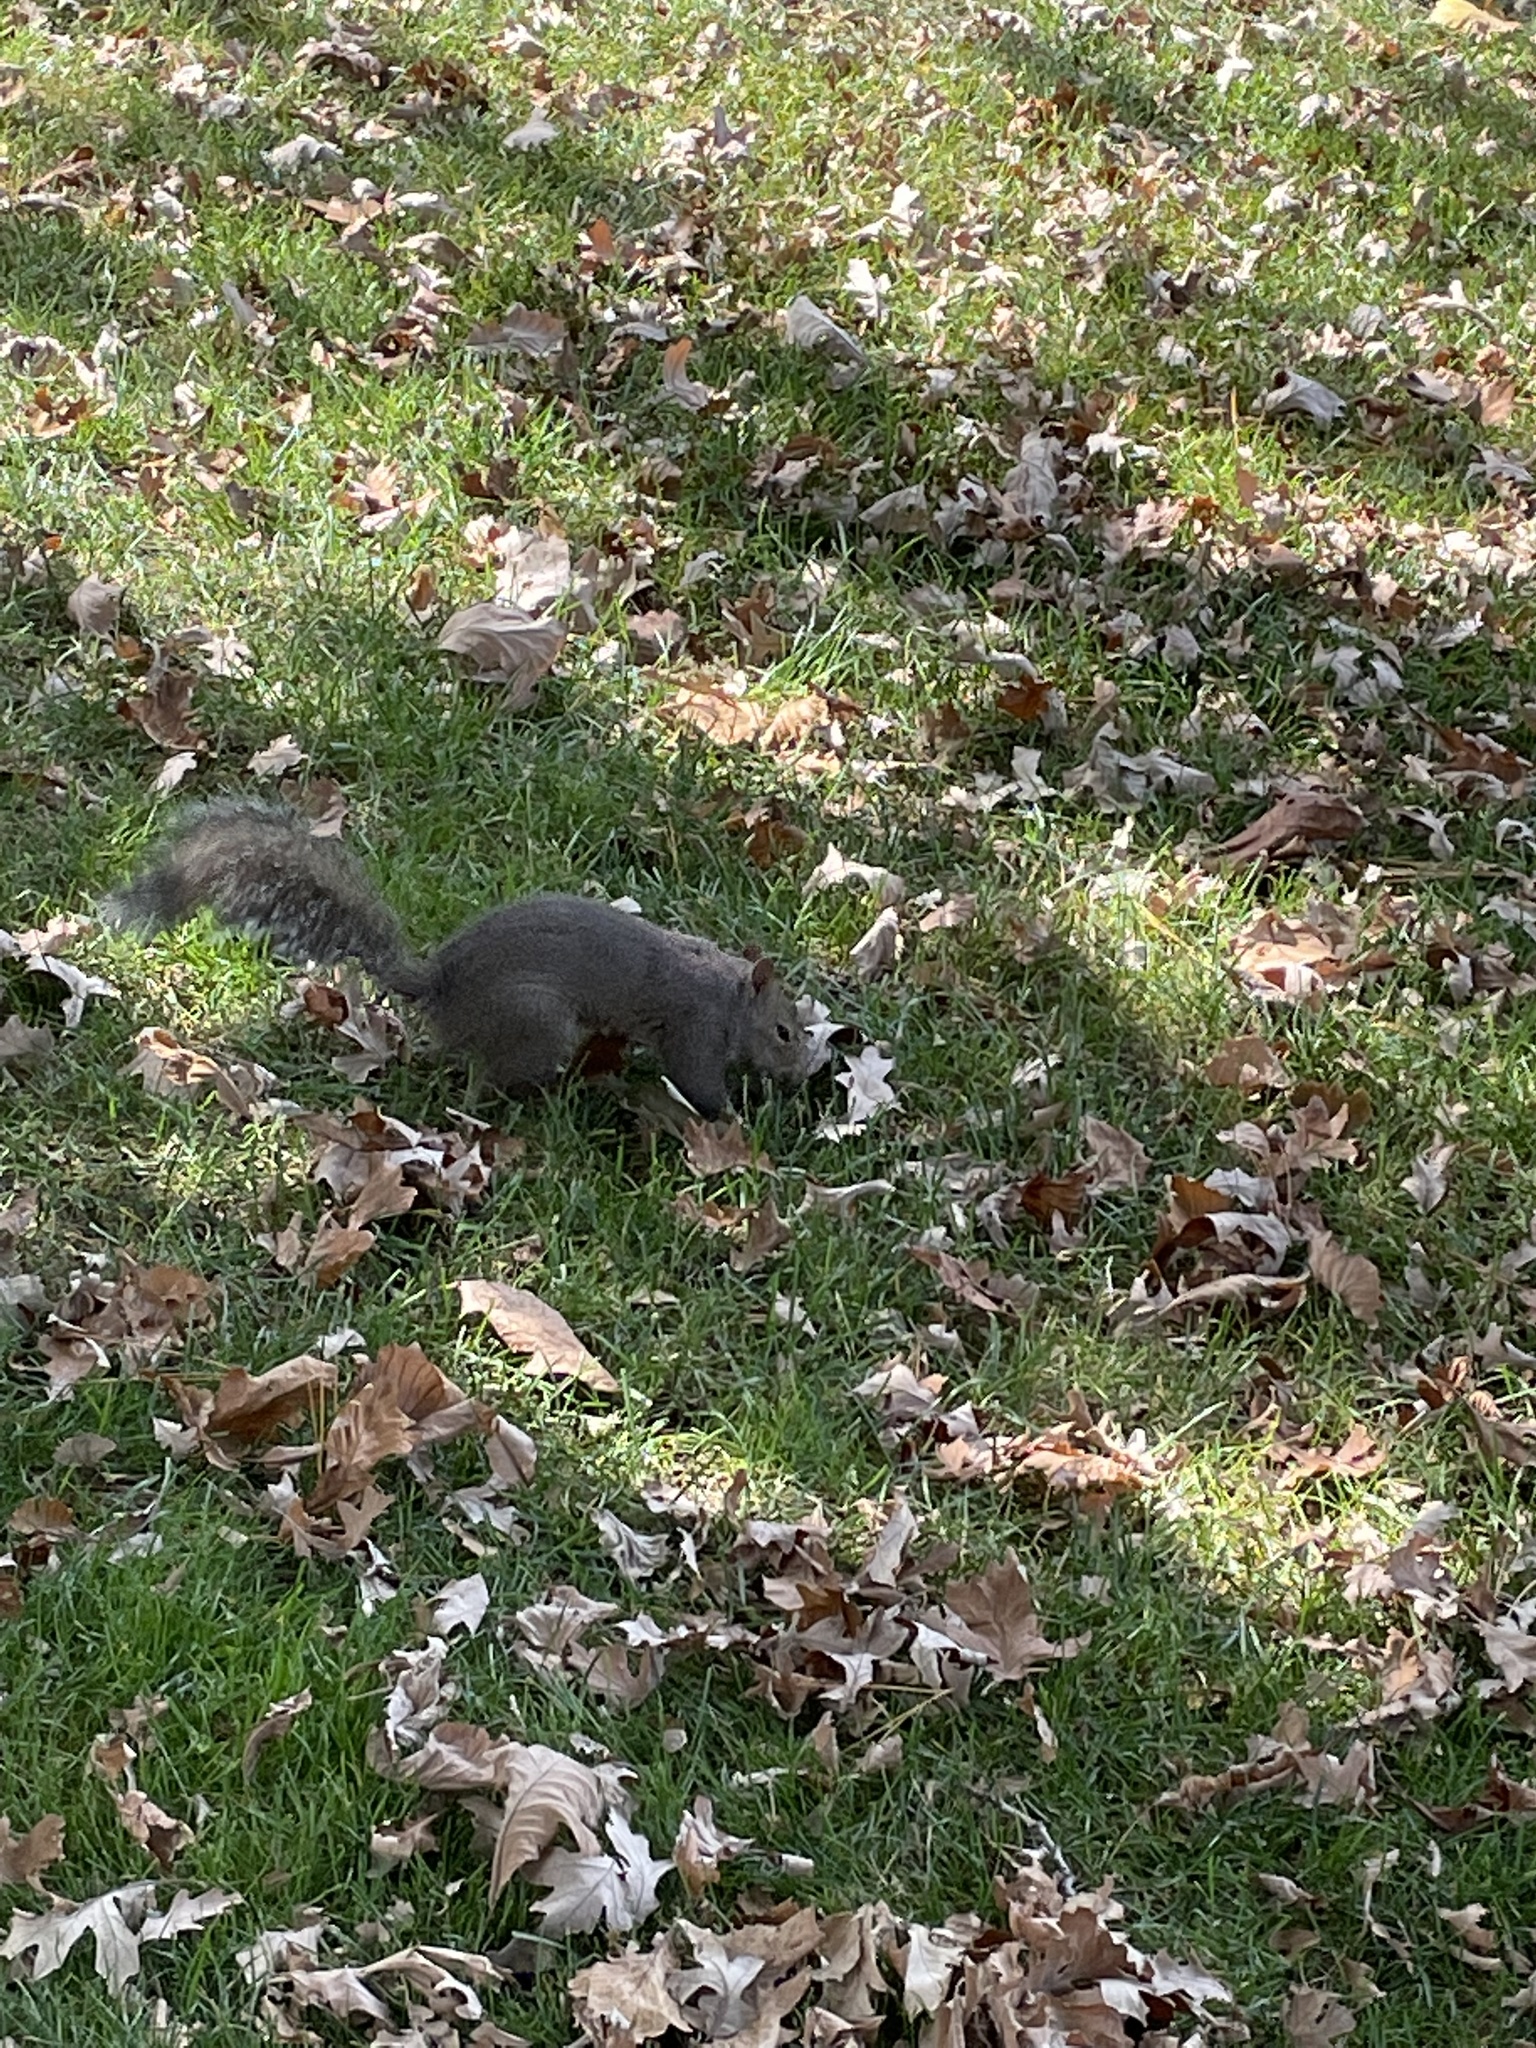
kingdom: Animalia
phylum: Chordata
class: Mammalia
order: Rodentia
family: Sciuridae
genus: Sciurus
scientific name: Sciurus carolinensis
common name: Eastern gray squirrel
